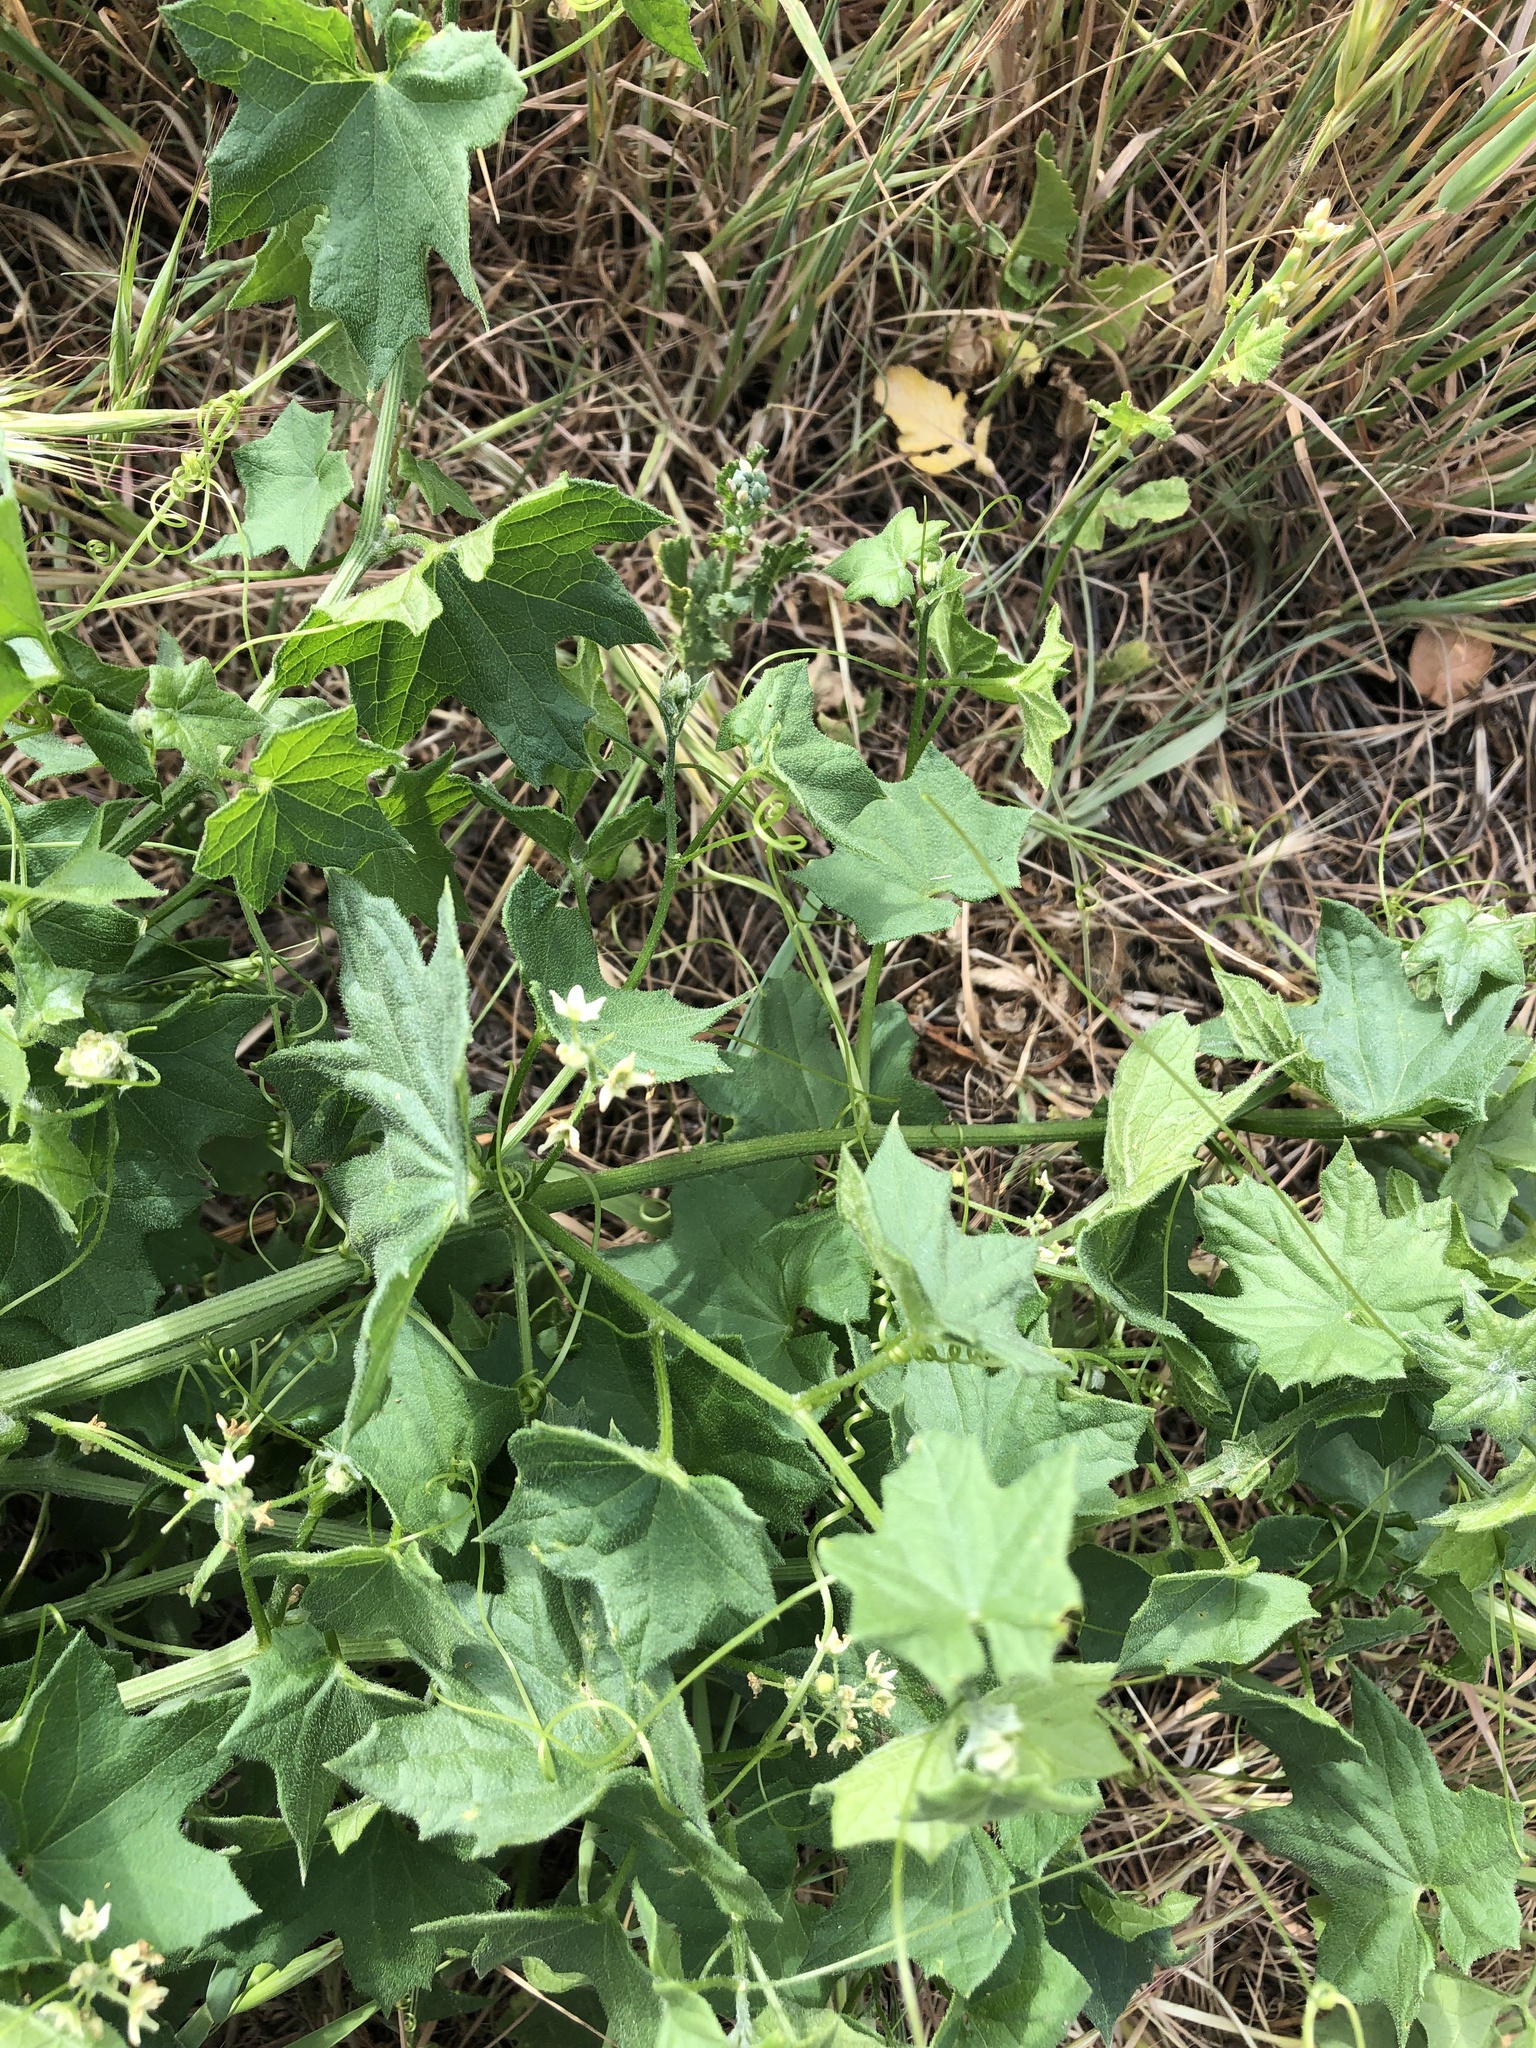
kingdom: Plantae
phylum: Tracheophyta
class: Magnoliopsida
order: Cucurbitales
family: Cucurbitaceae
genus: Marah
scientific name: Marah fabacea
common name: California manroot
